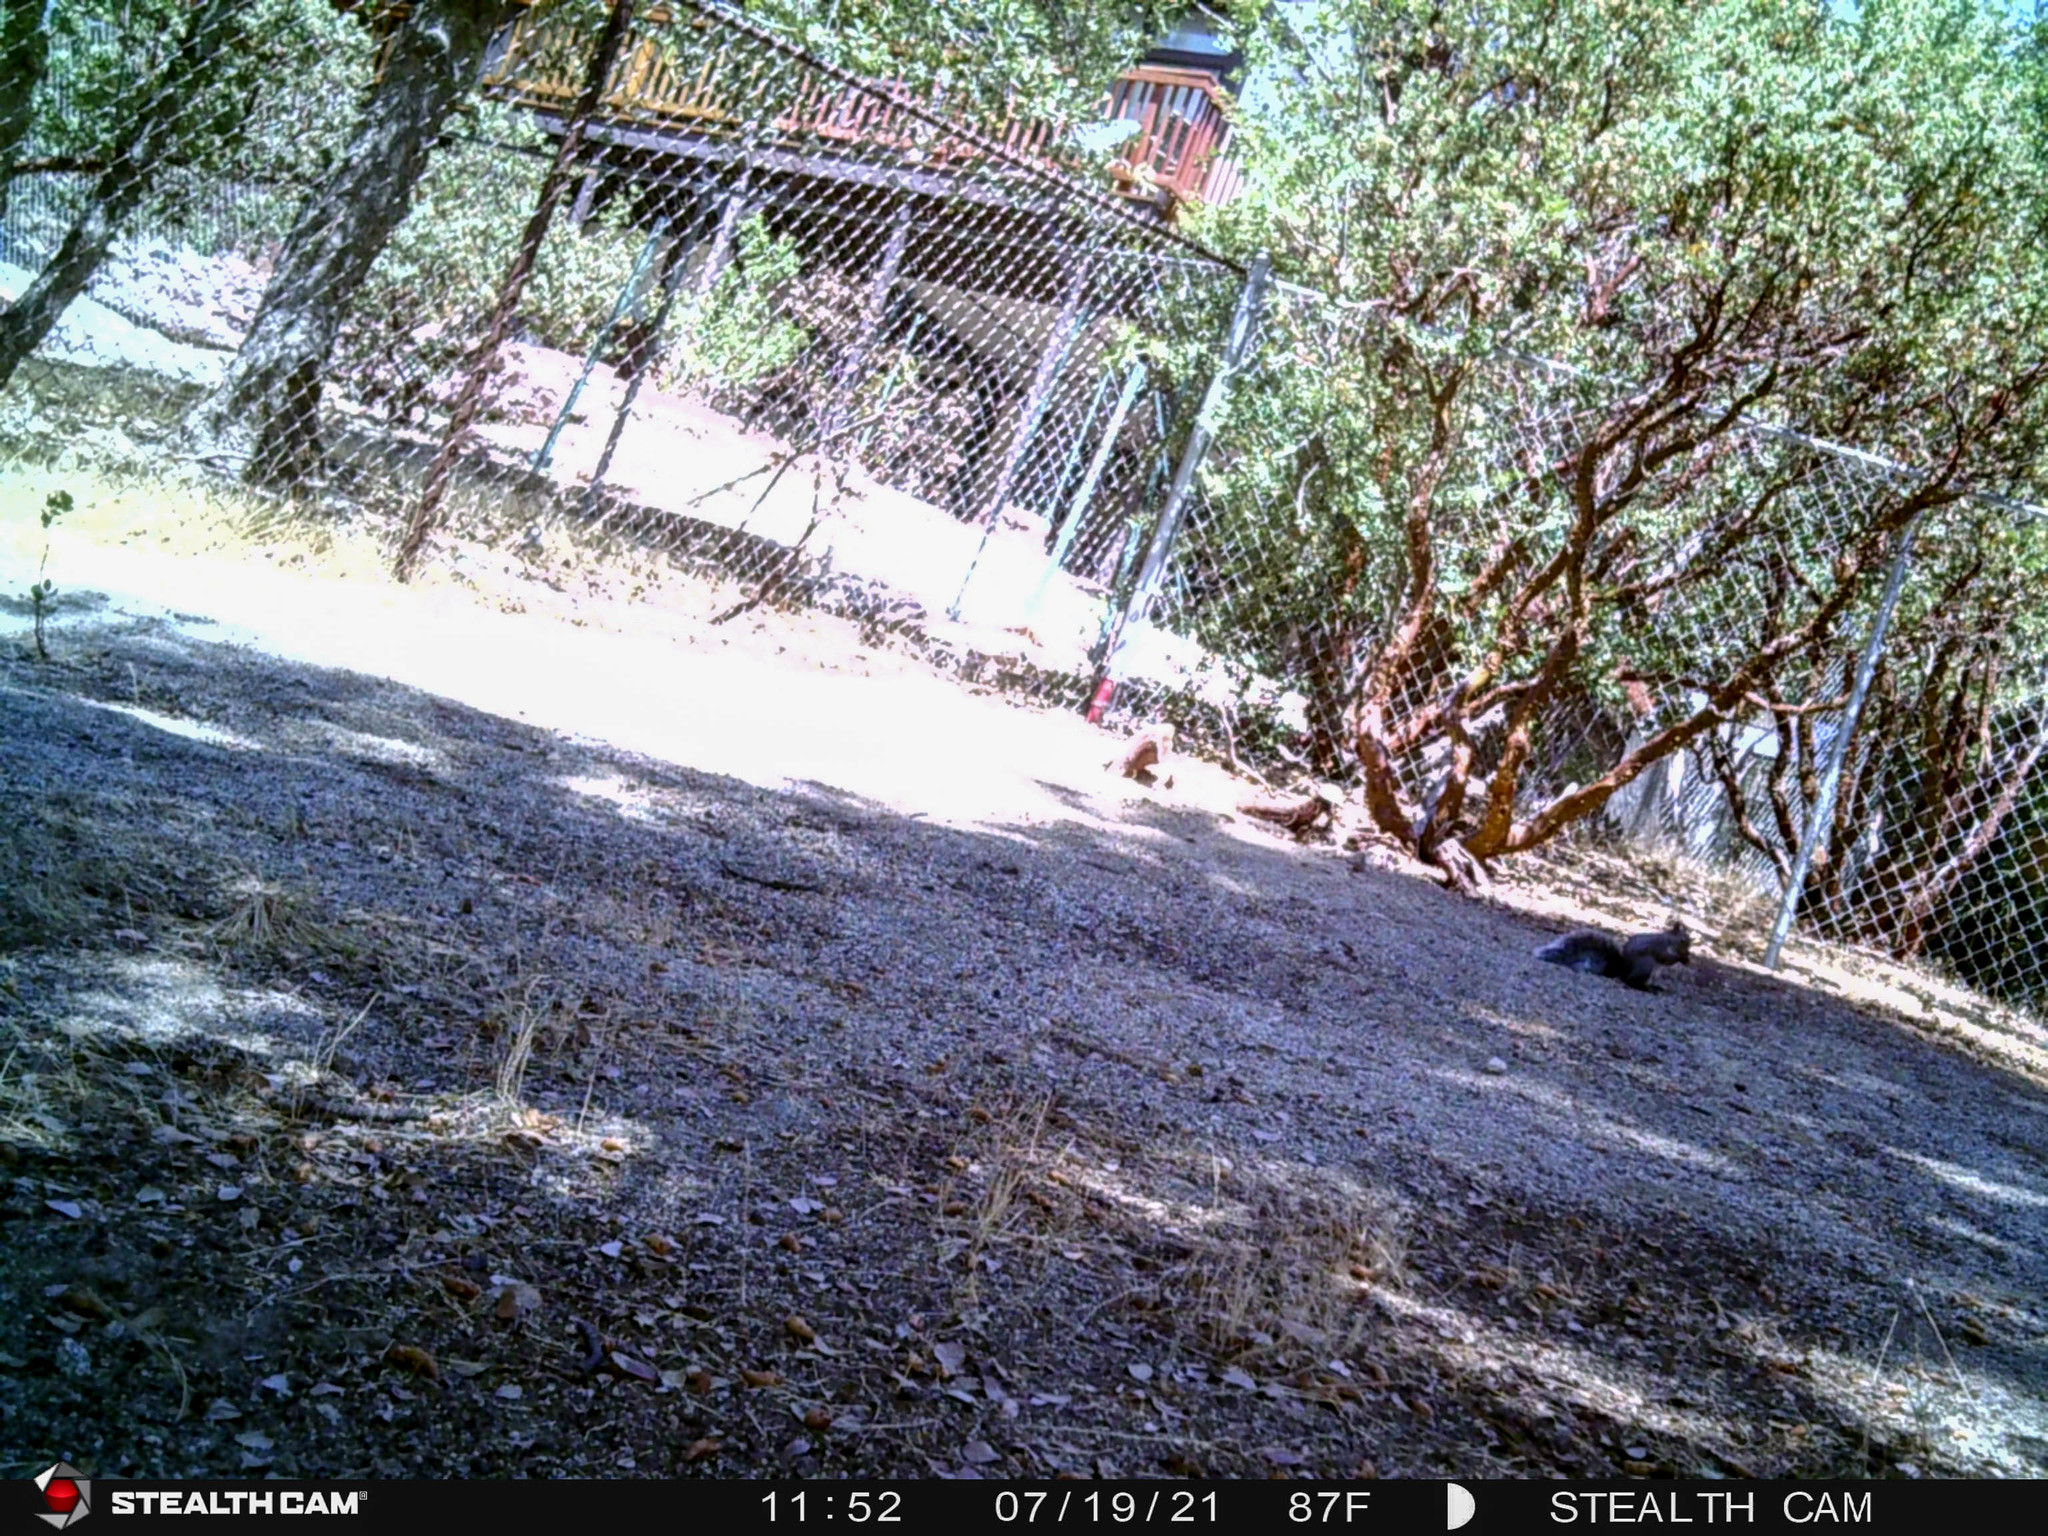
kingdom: Animalia
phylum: Chordata
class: Mammalia
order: Rodentia
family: Sciuridae
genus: Sciurus
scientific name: Sciurus griseus
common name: Western gray squirrel
